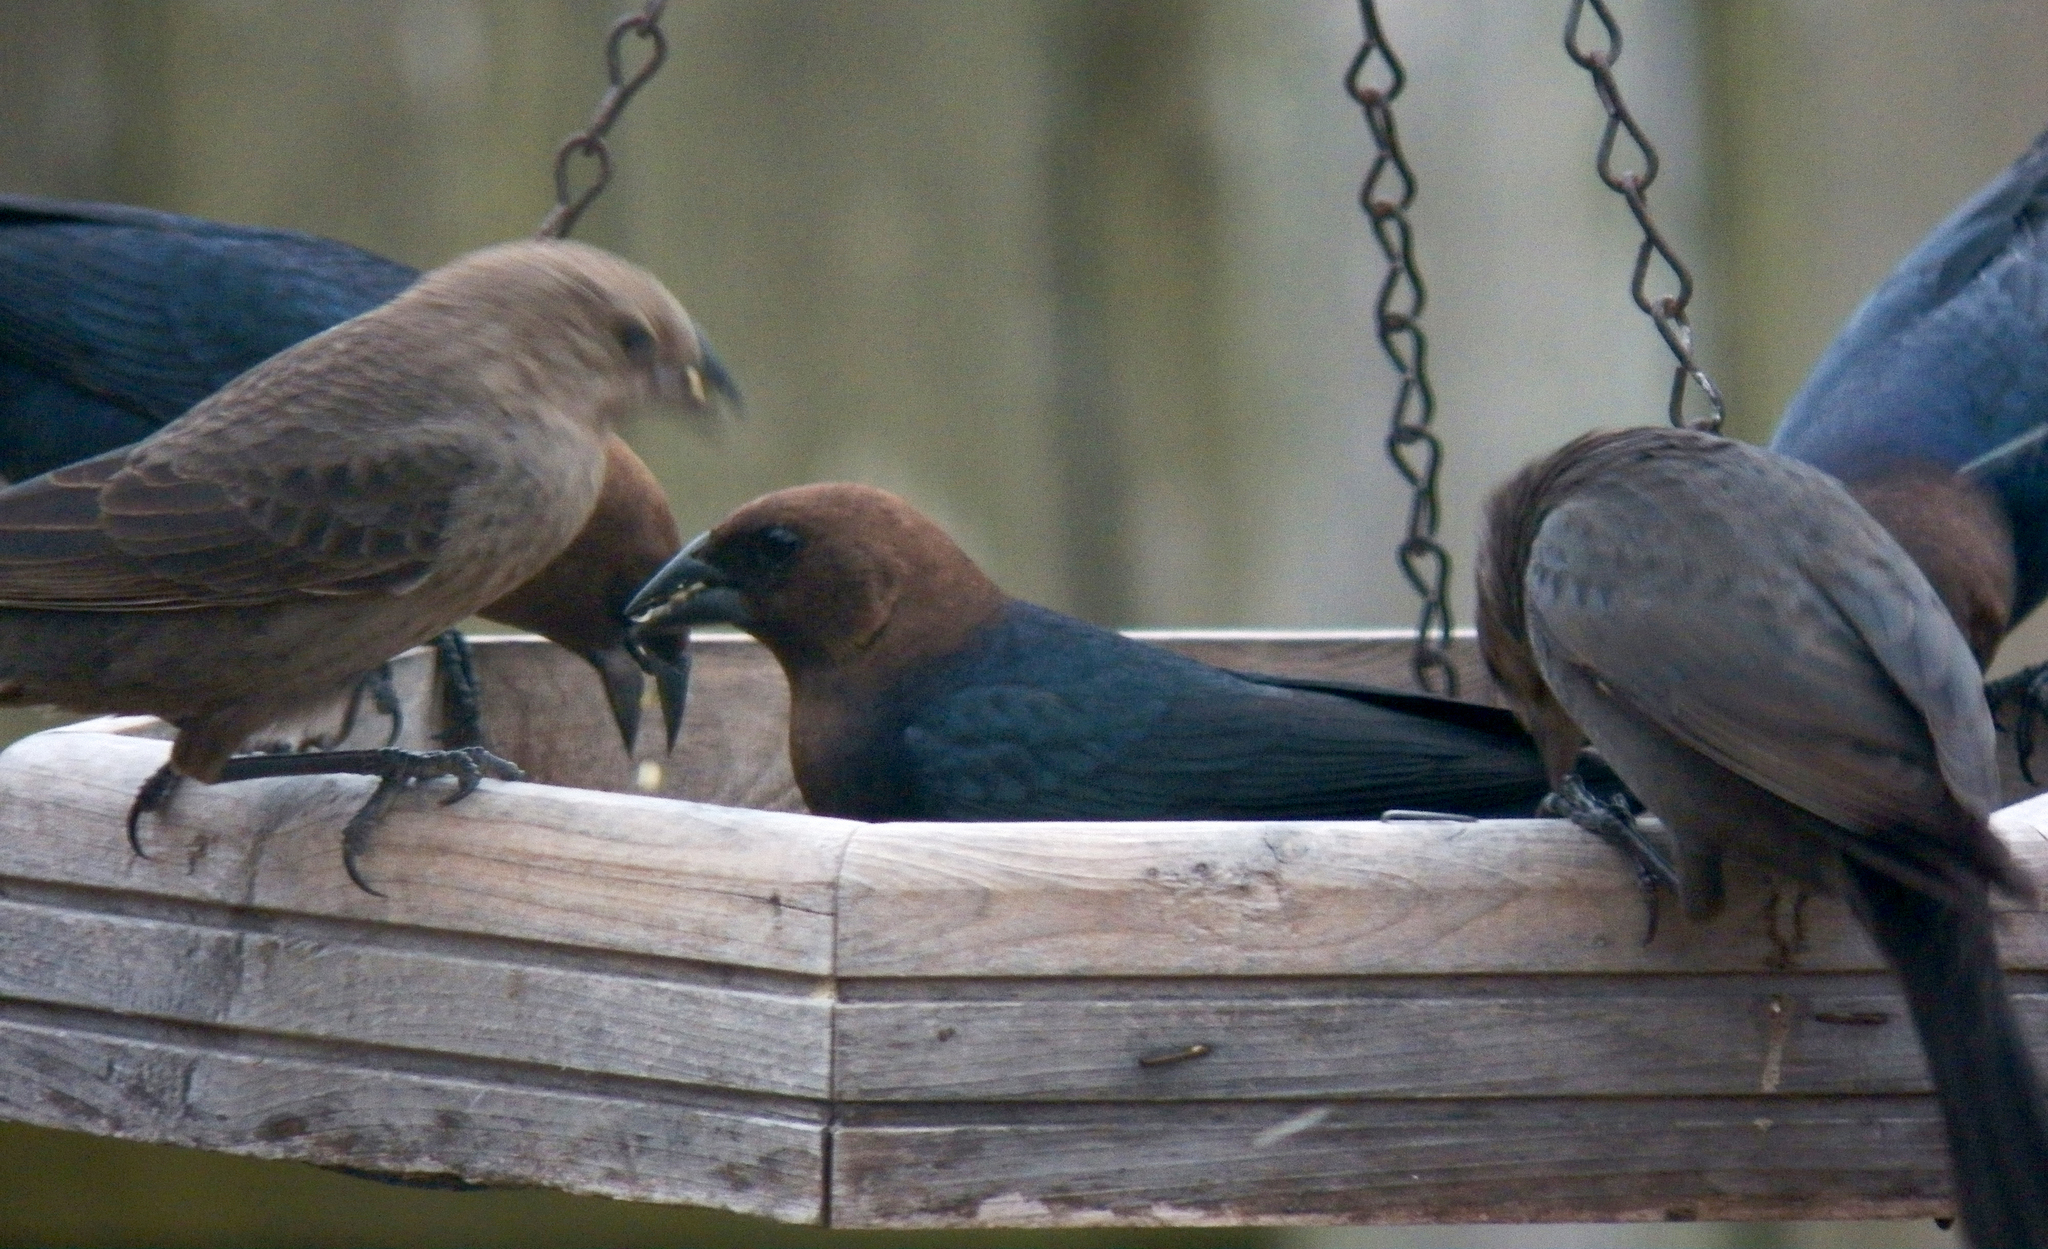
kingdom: Animalia
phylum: Chordata
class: Aves
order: Passeriformes
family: Icteridae
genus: Molothrus
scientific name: Molothrus ater
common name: Brown-headed cowbird
